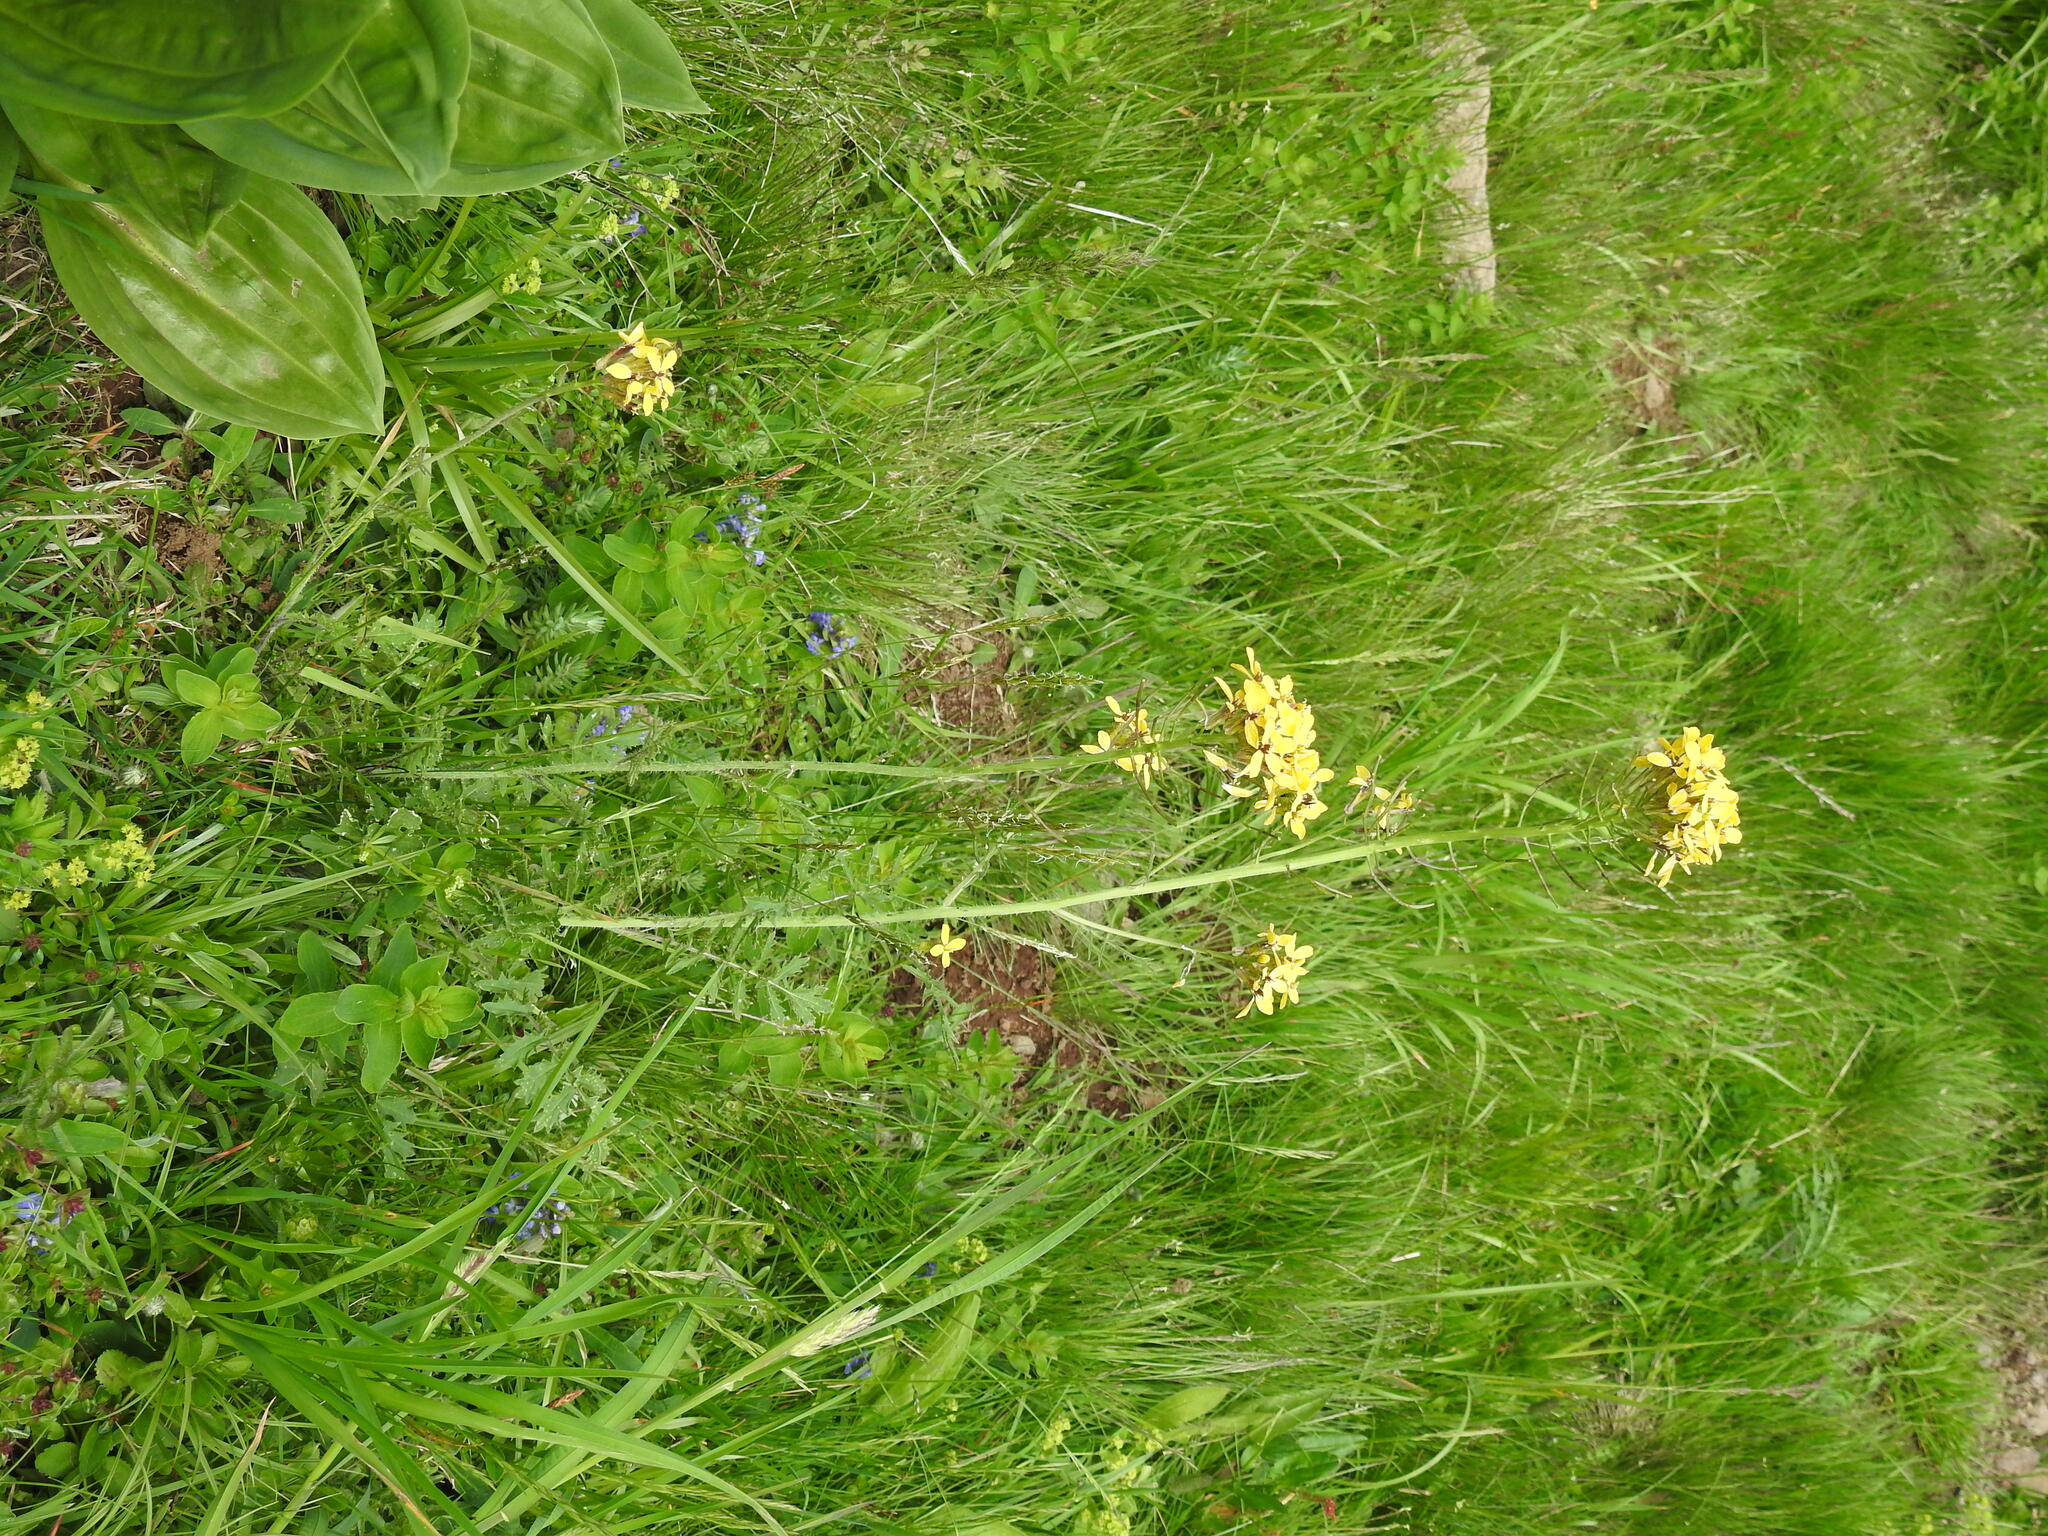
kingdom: Plantae
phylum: Tracheophyta
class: Magnoliopsida
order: Brassicales
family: Brassicaceae
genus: Coincya
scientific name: Coincya monensis
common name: Star-mustard
